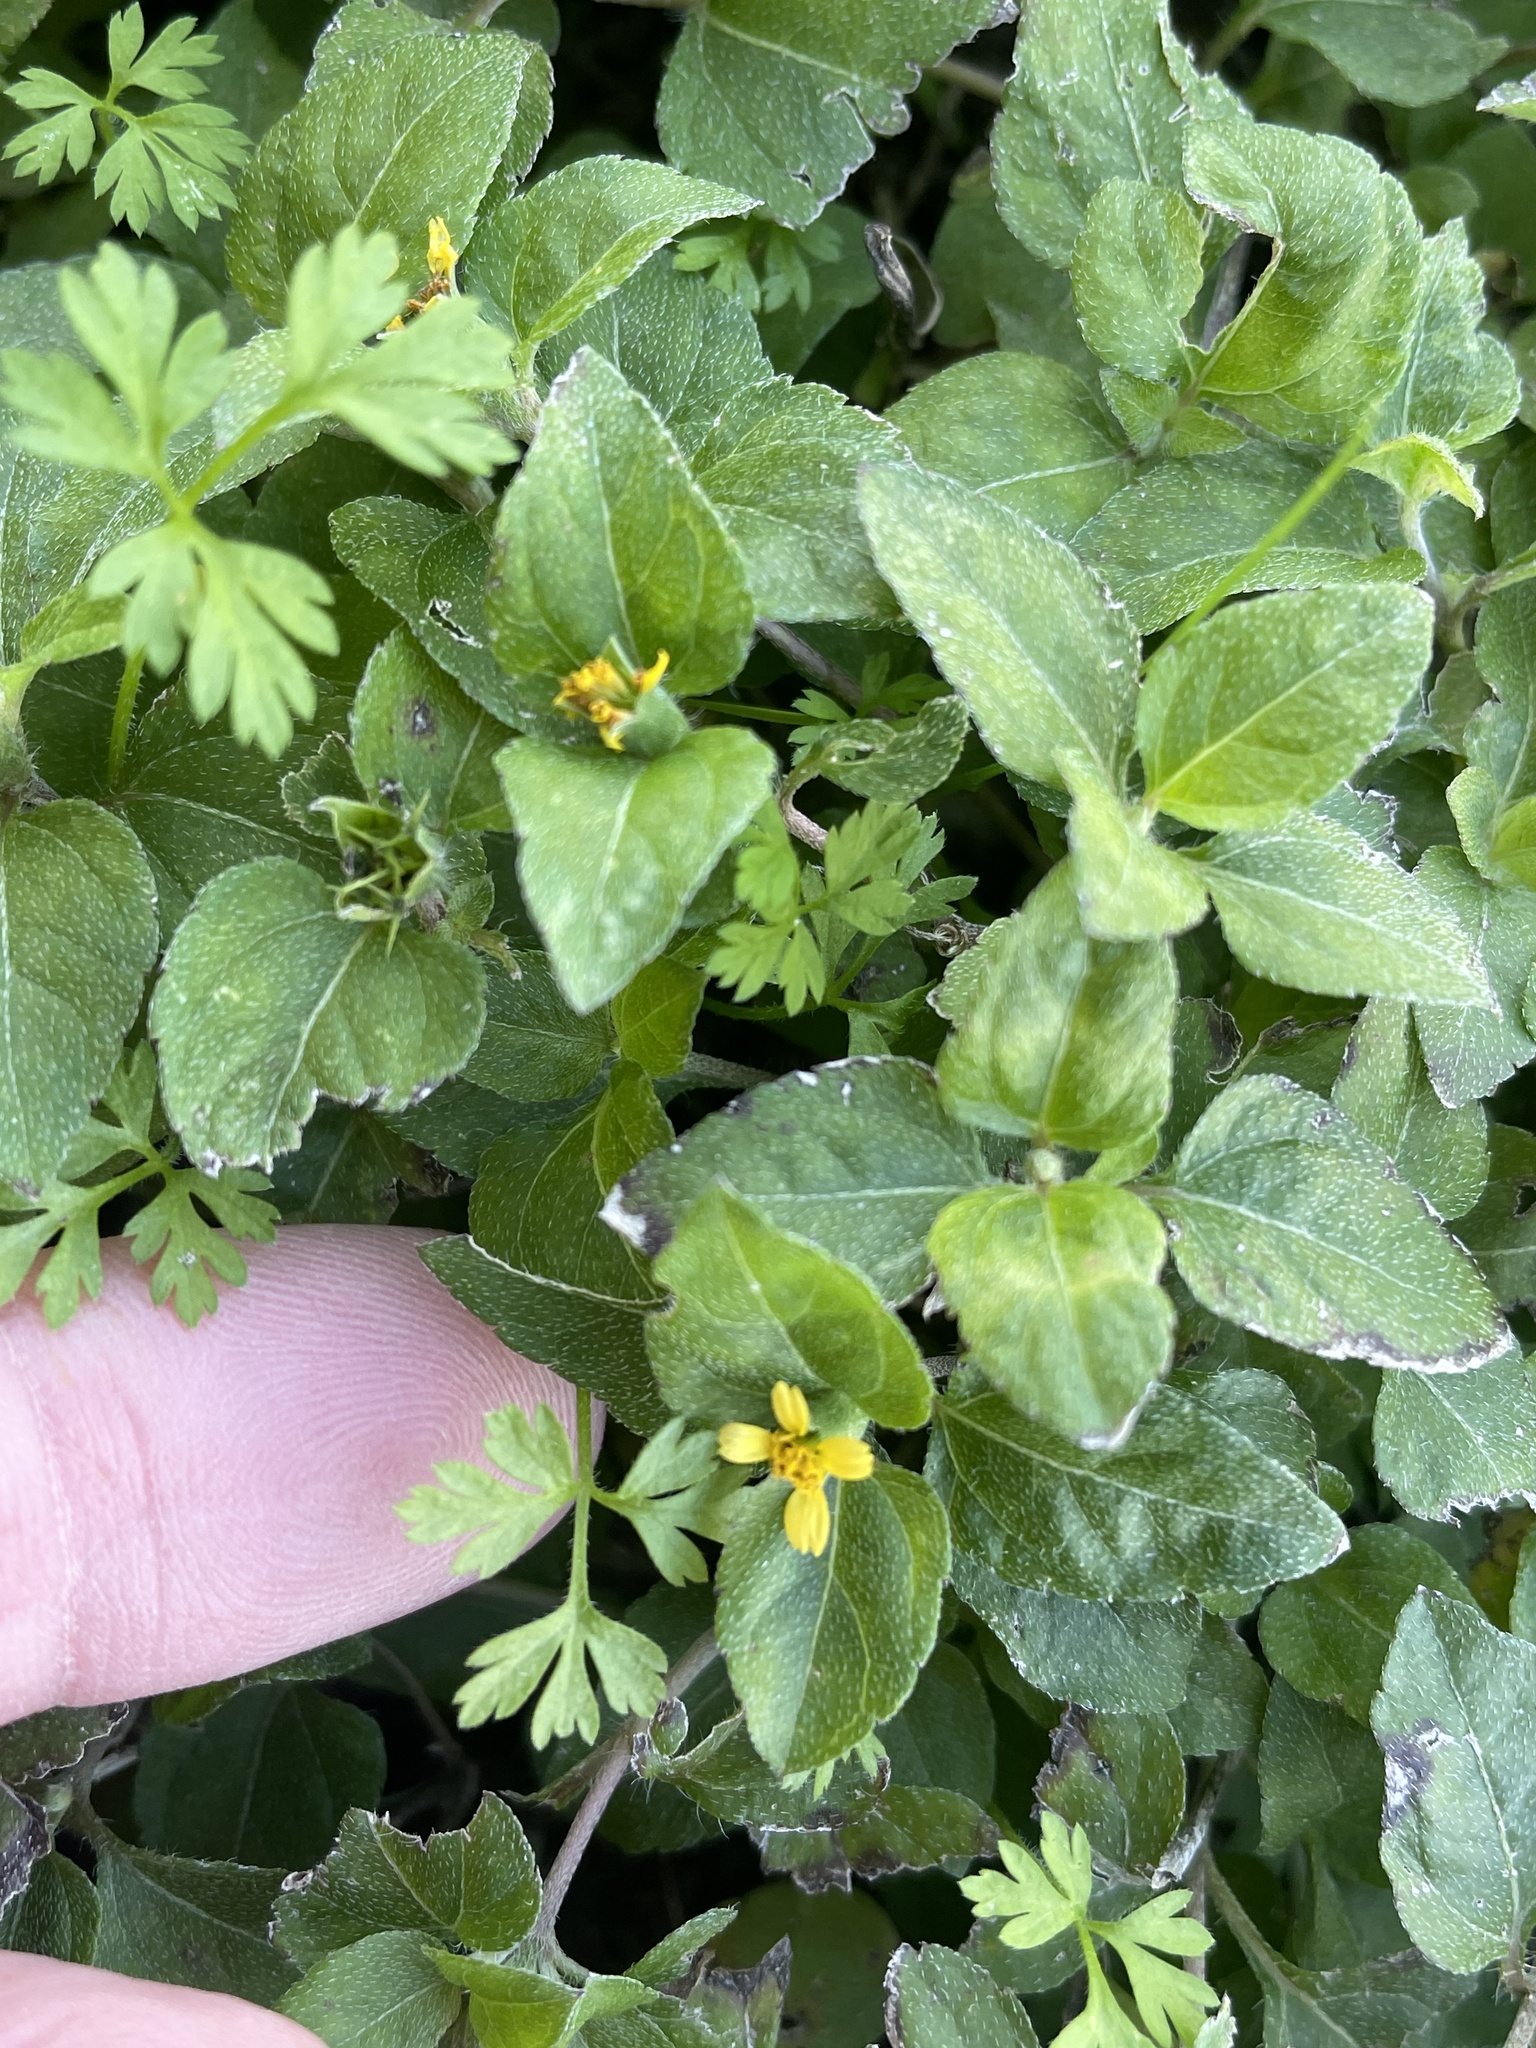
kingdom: Plantae
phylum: Tracheophyta
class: Magnoliopsida
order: Asterales
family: Asteraceae
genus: Calyptocarpus
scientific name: Calyptocarpus vialis
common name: Straggler daisy
